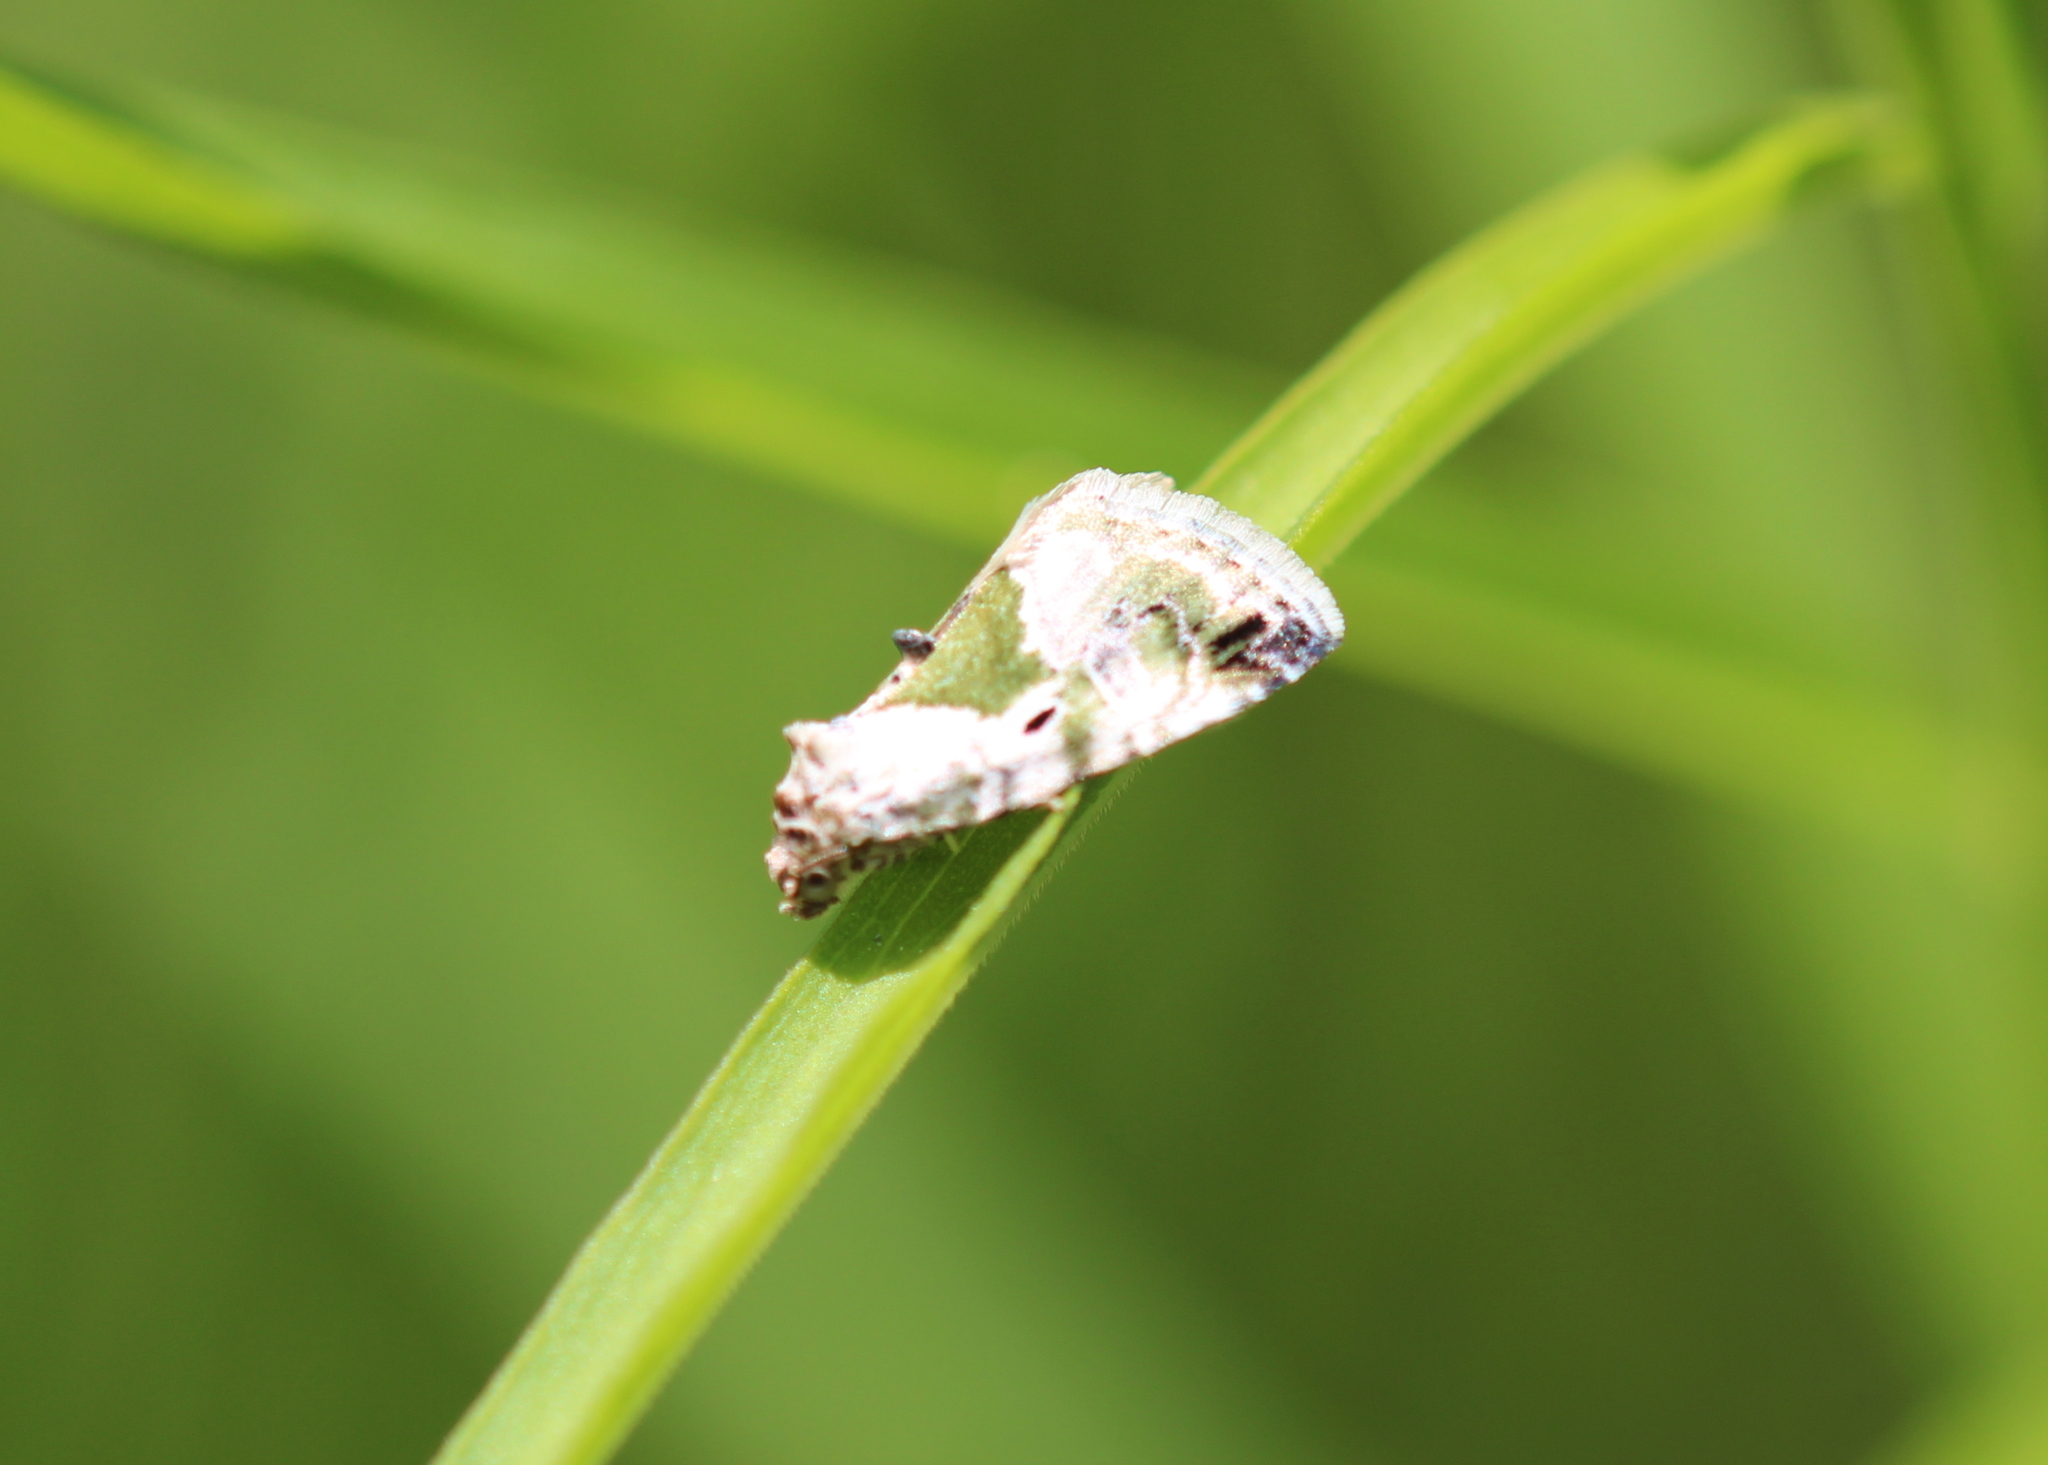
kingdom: Animalia
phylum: Arthropoda
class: Insecta
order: Lepidoptera
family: Noctuidae
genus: Maliattha
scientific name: Maliattha synochitis
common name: Black-dotted glyph
